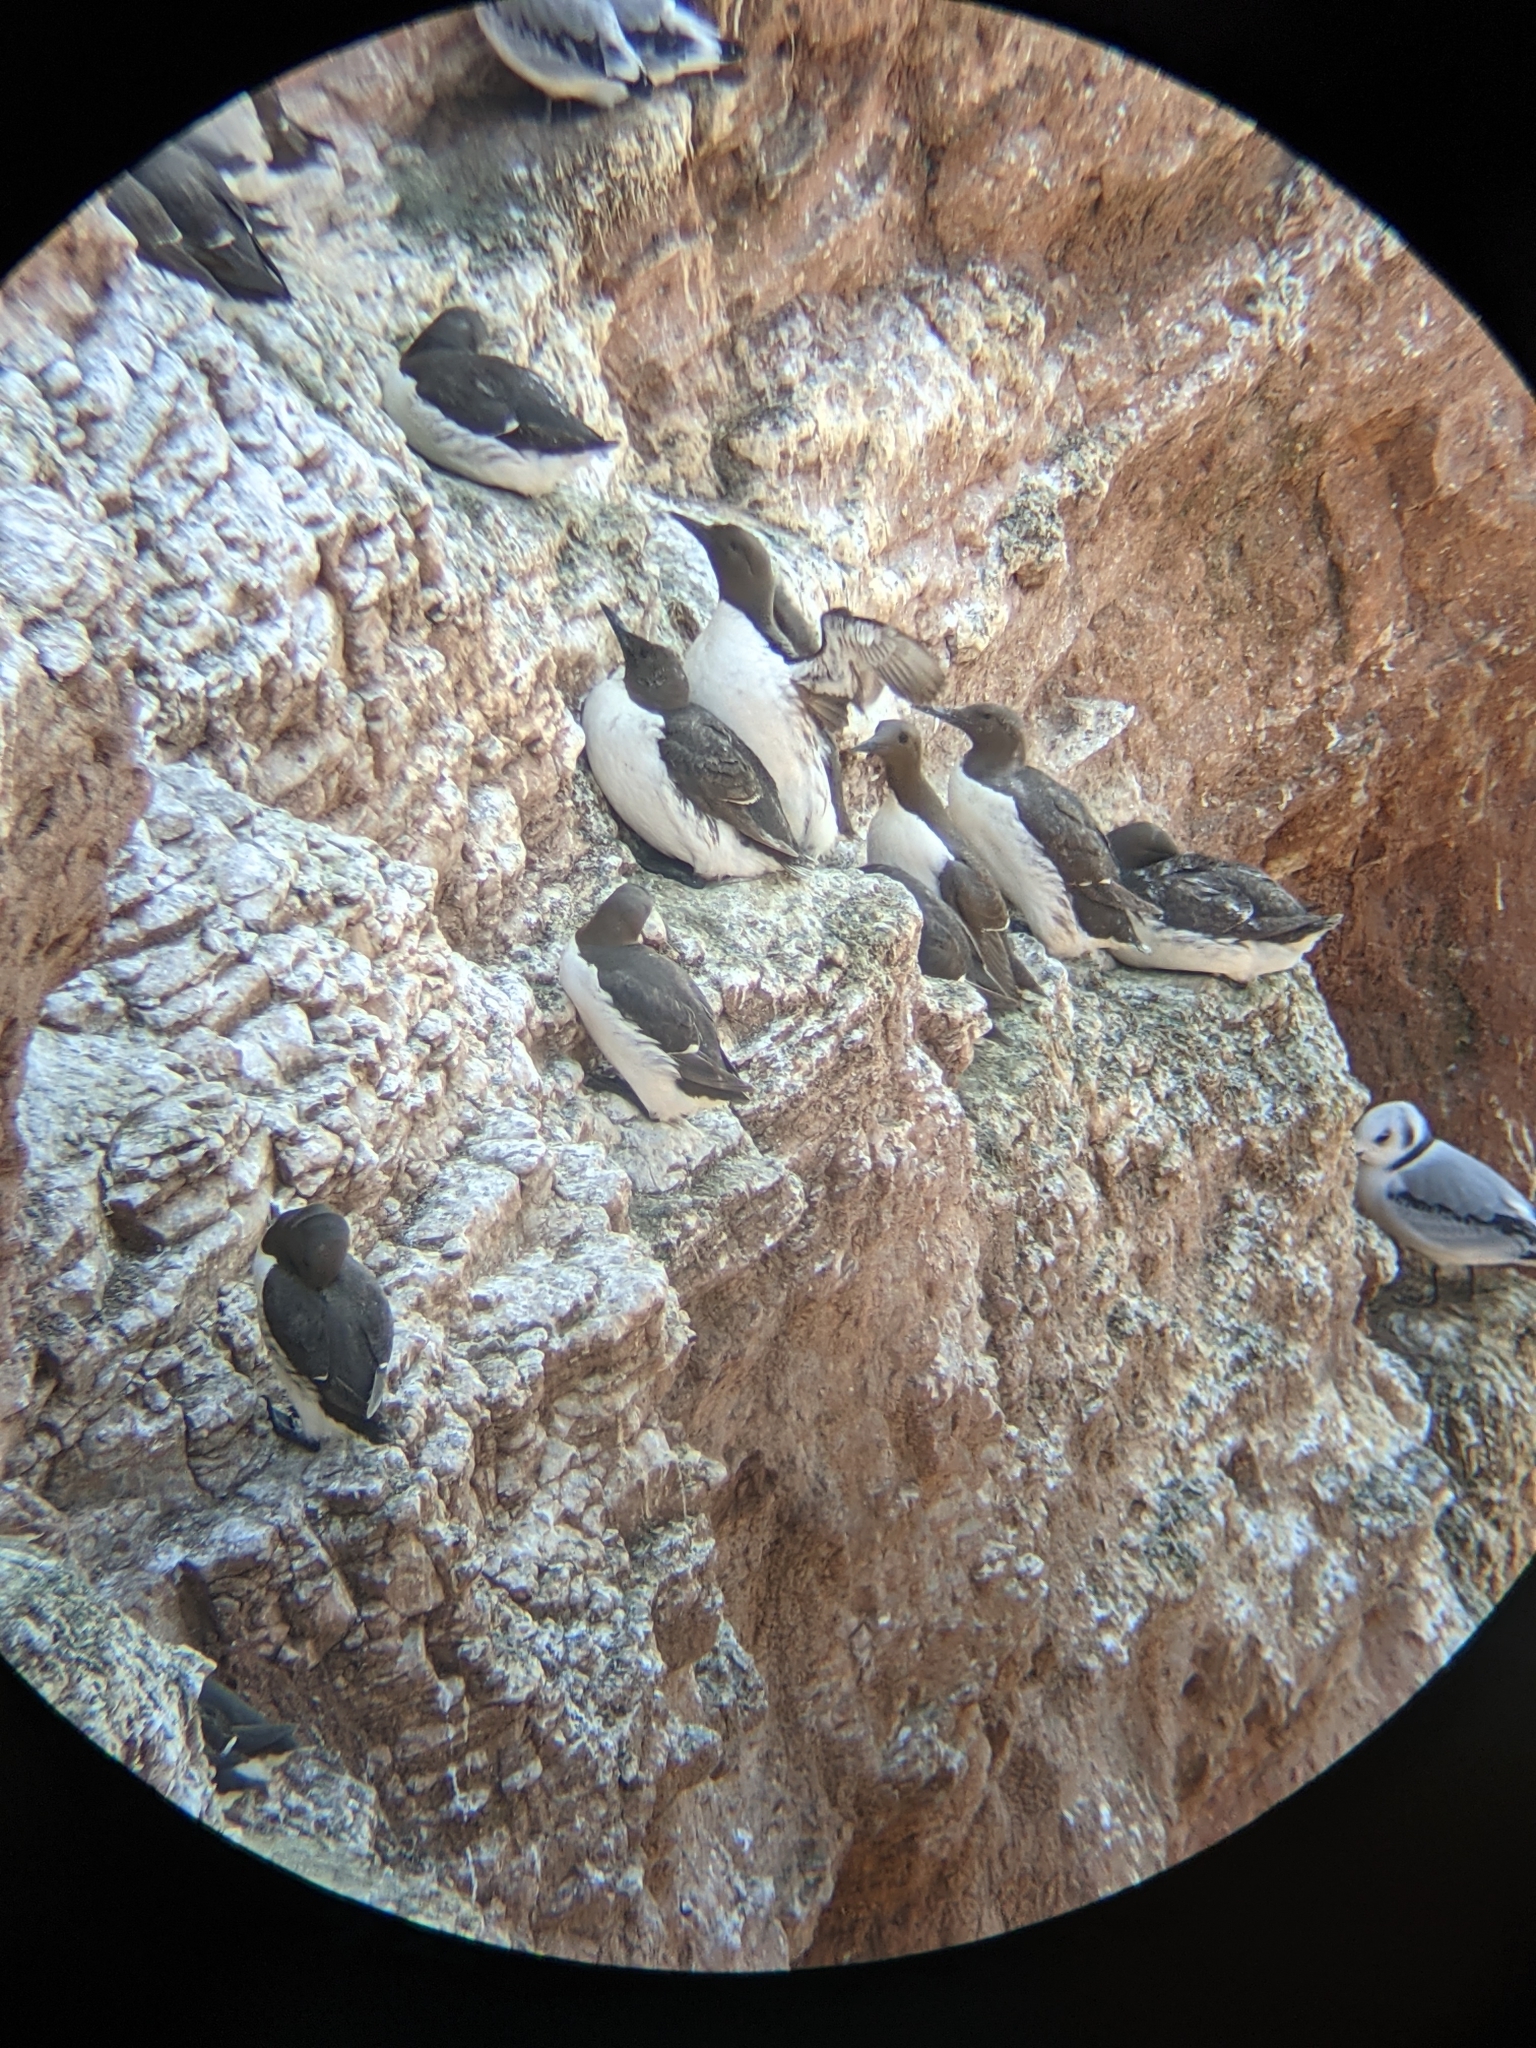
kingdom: Animalia
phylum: Chordata
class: Aves
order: Charadriiformes
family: Alcidae
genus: Uria
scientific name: Uria aalge
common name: Common murre
